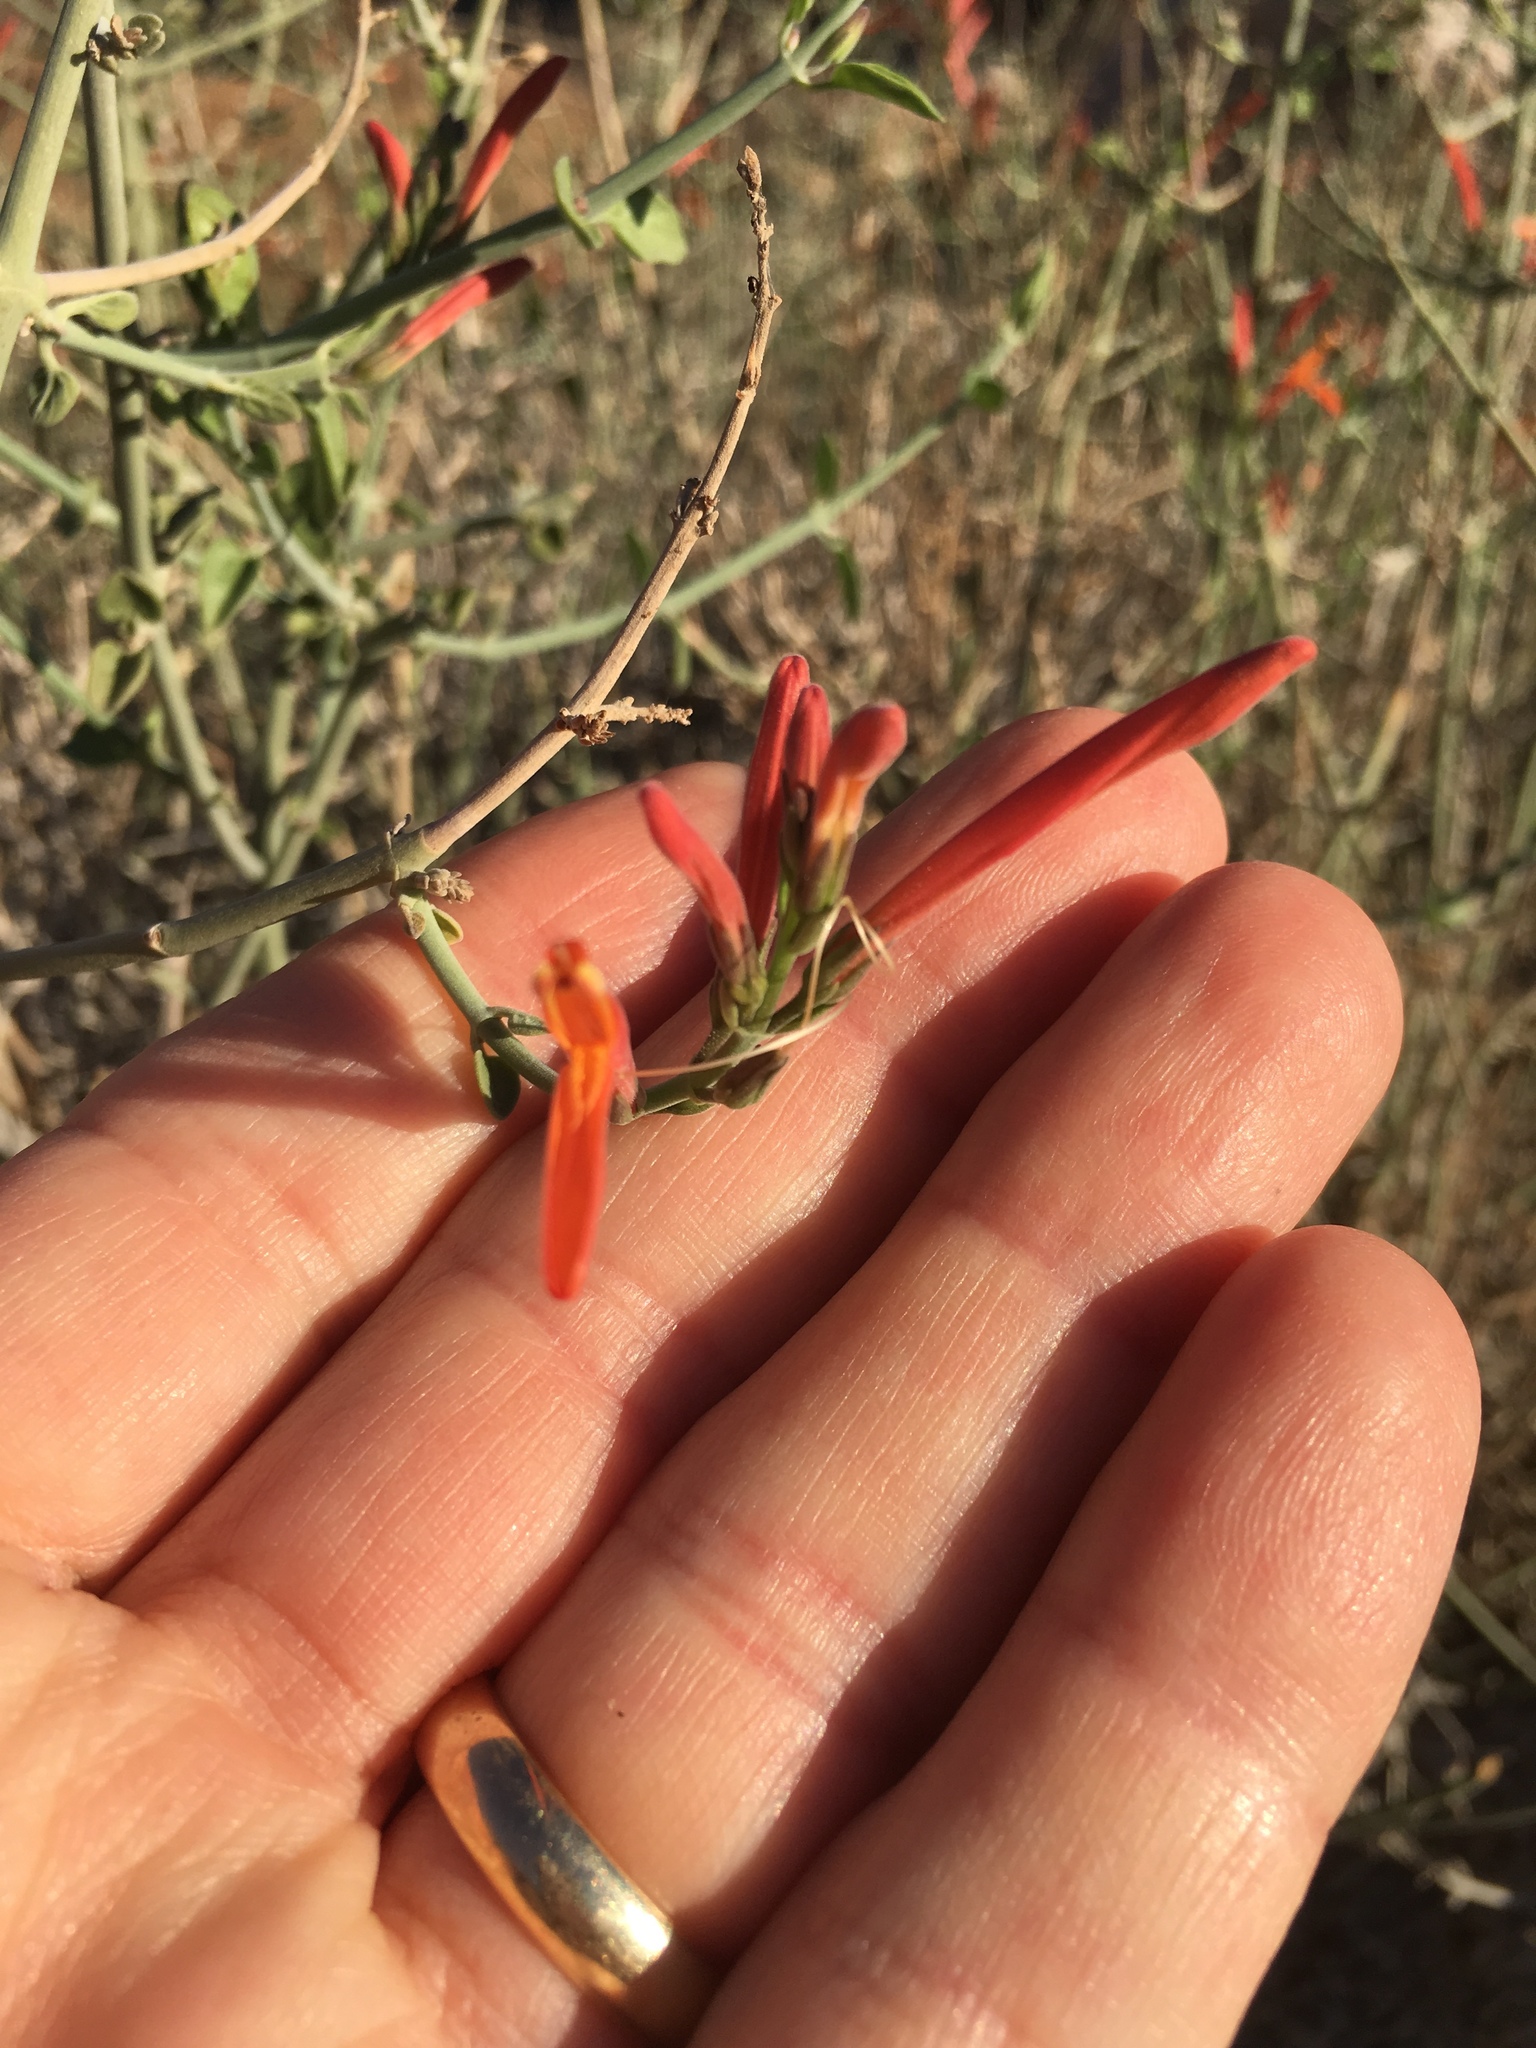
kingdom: Plantae
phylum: Tracheophyta
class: Magnoliopsida
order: Lamiales
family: Acanthaceae
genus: Justicia
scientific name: Justicia californica
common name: Chuparosa-honeysuckle
